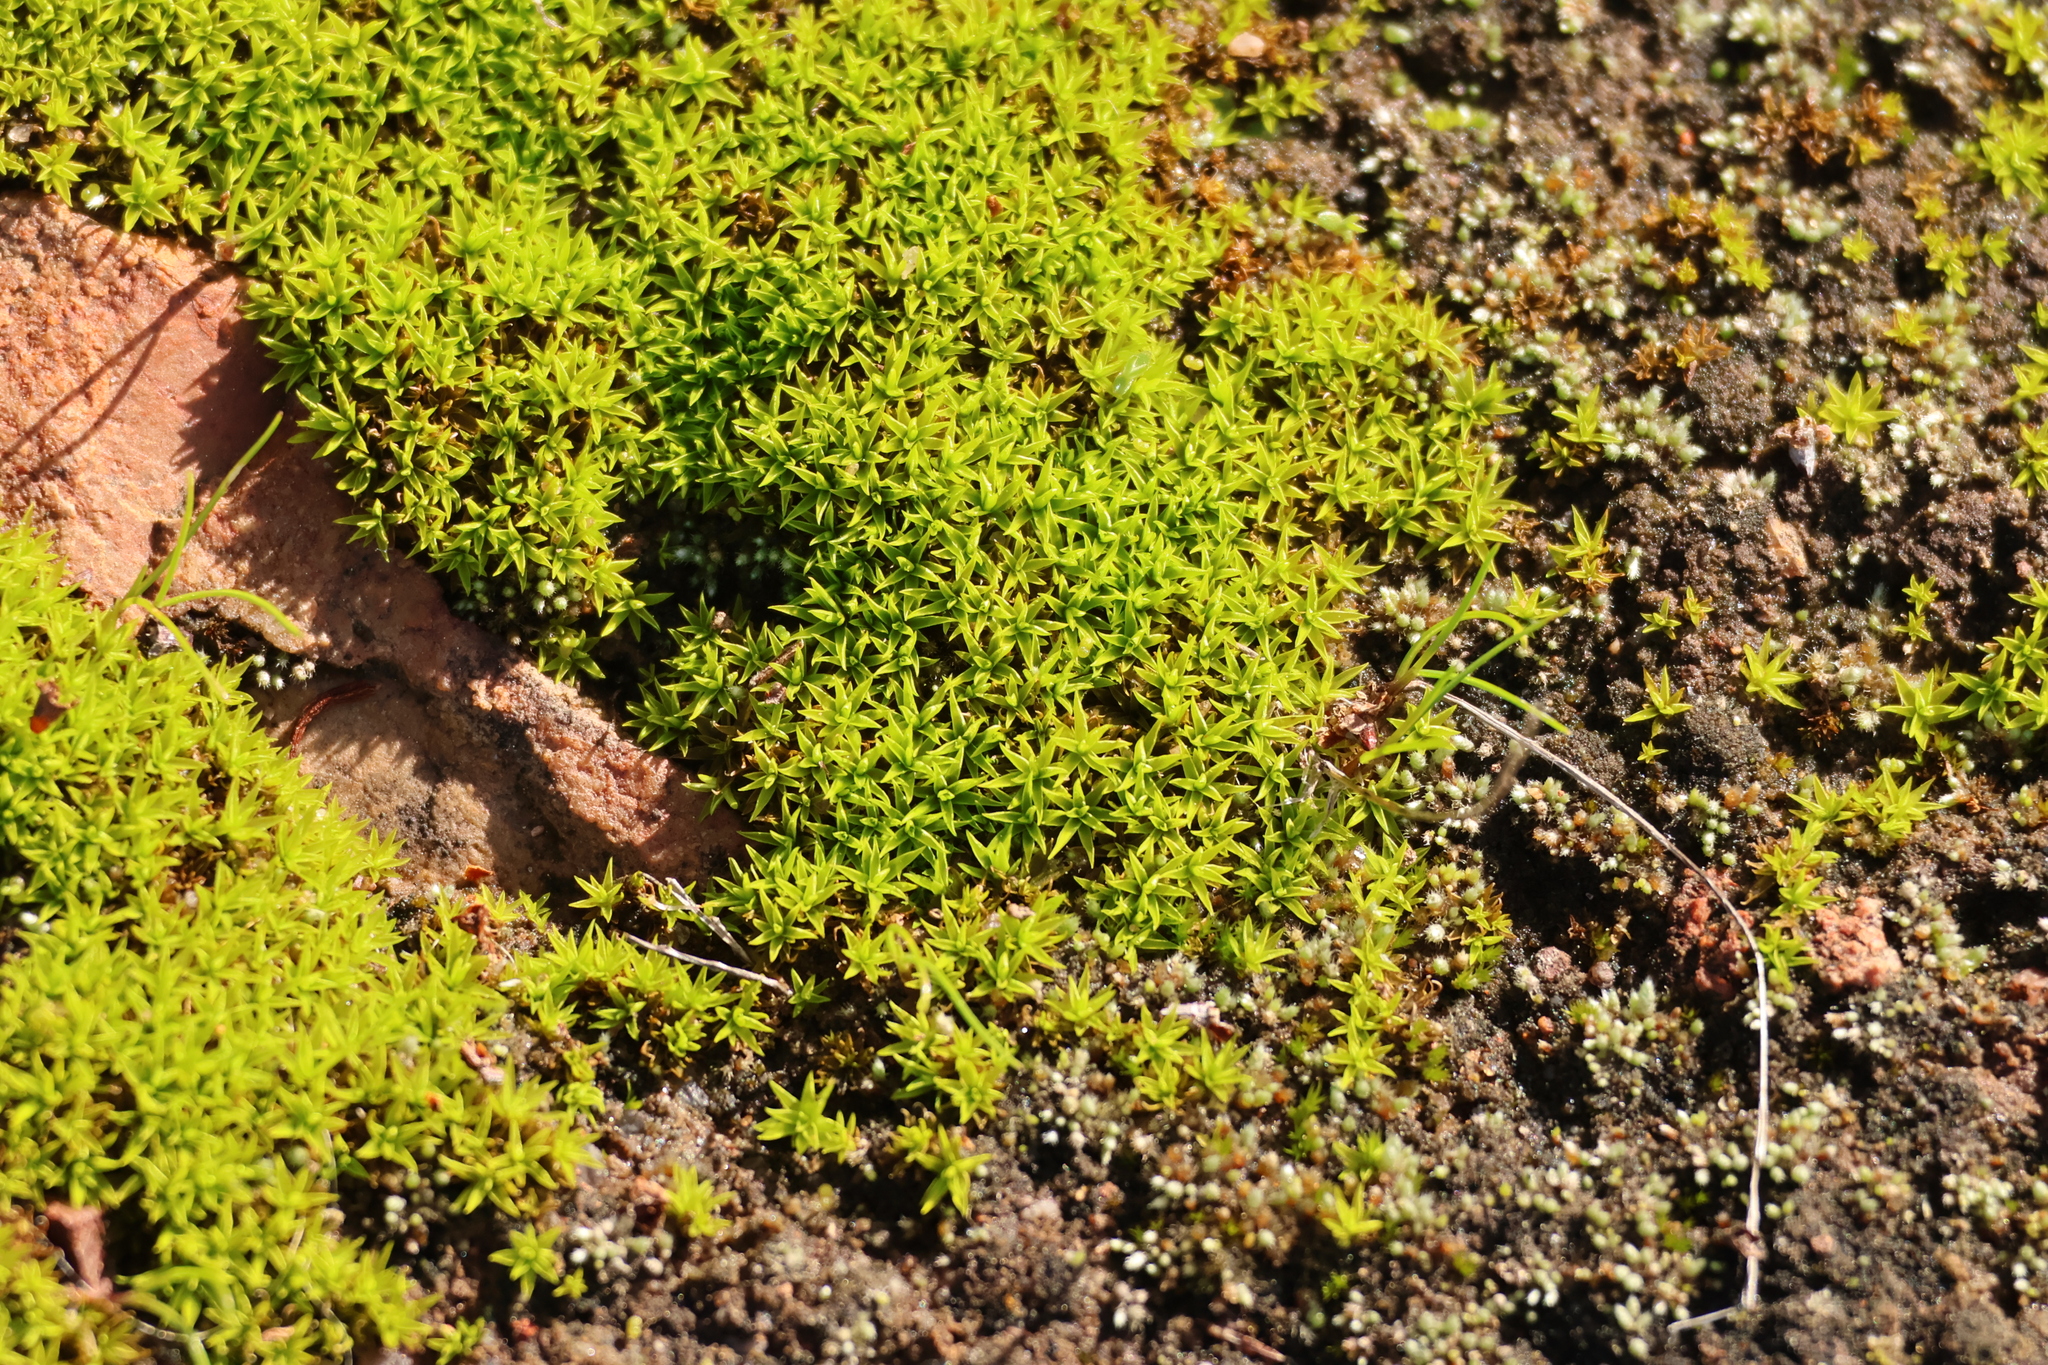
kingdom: Plantae
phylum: Bryophyta
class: Bryopsida
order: Pottiales
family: Pottiaceae
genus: Timmiella
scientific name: Timmiella
